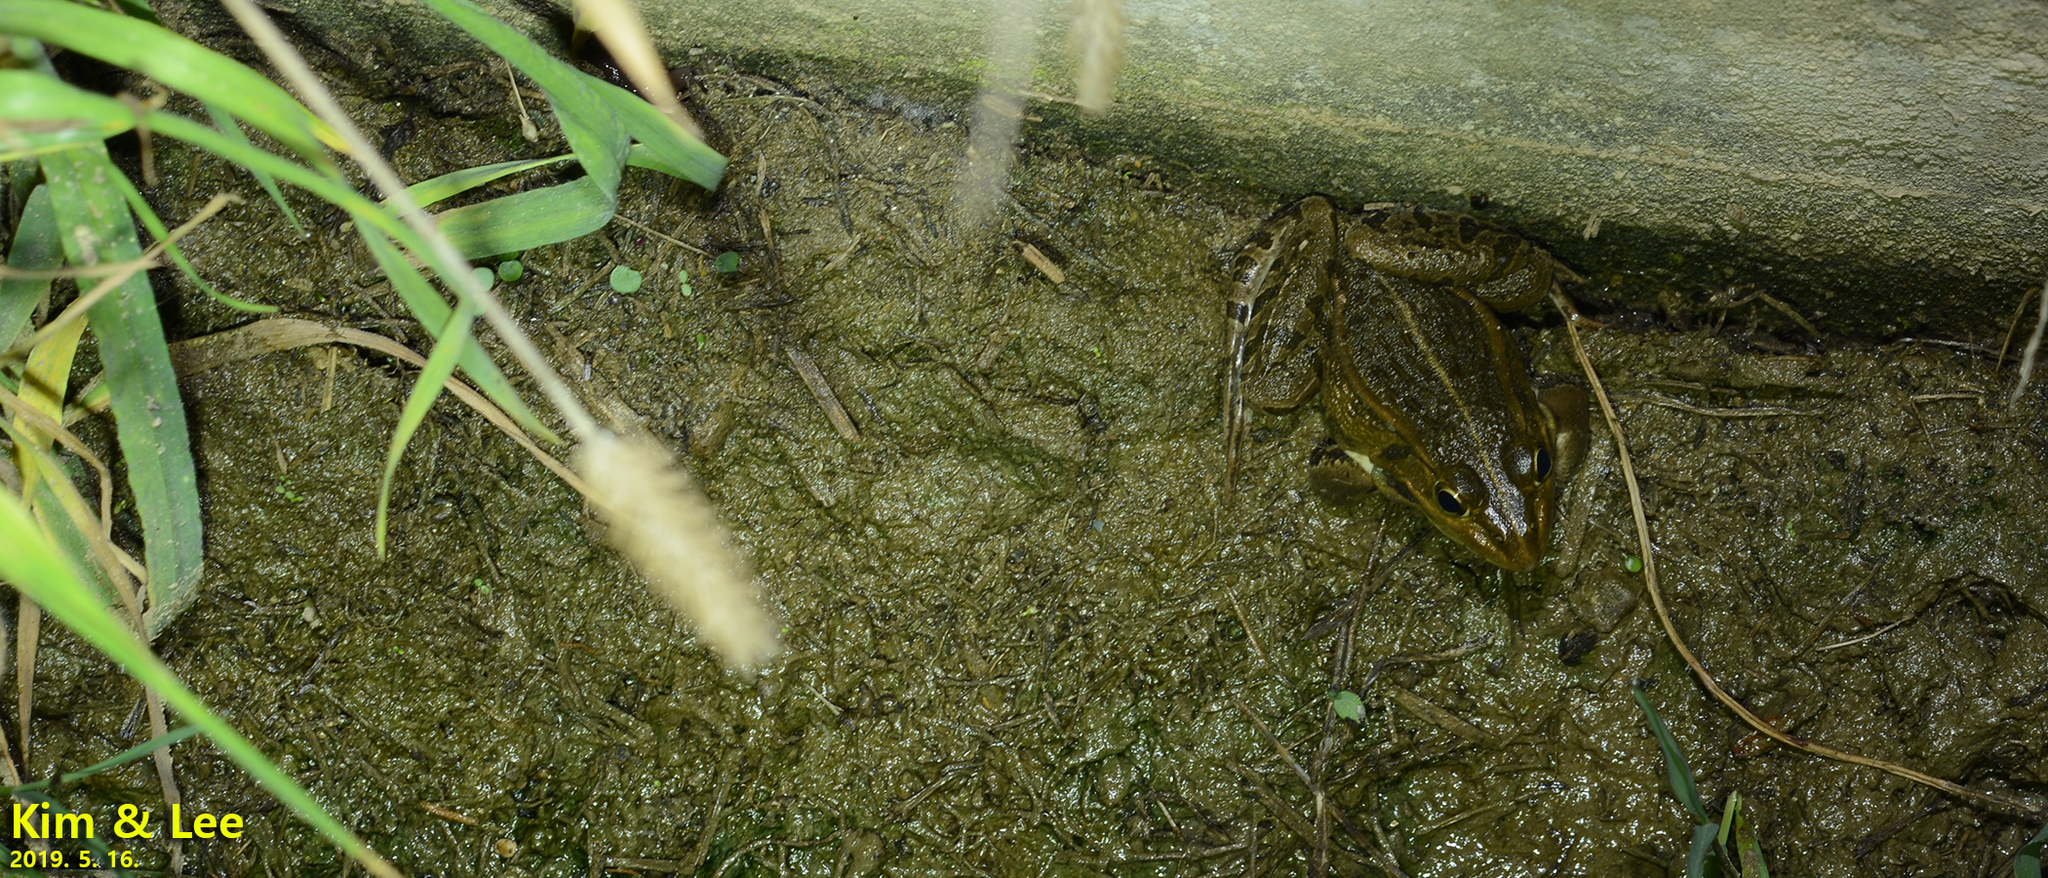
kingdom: Animalia
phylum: Chordata
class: Amphibia
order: Anura
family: Ranidae
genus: Pelophylax
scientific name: Pelophylax nigromaculatus
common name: Black-spotted pond frog
